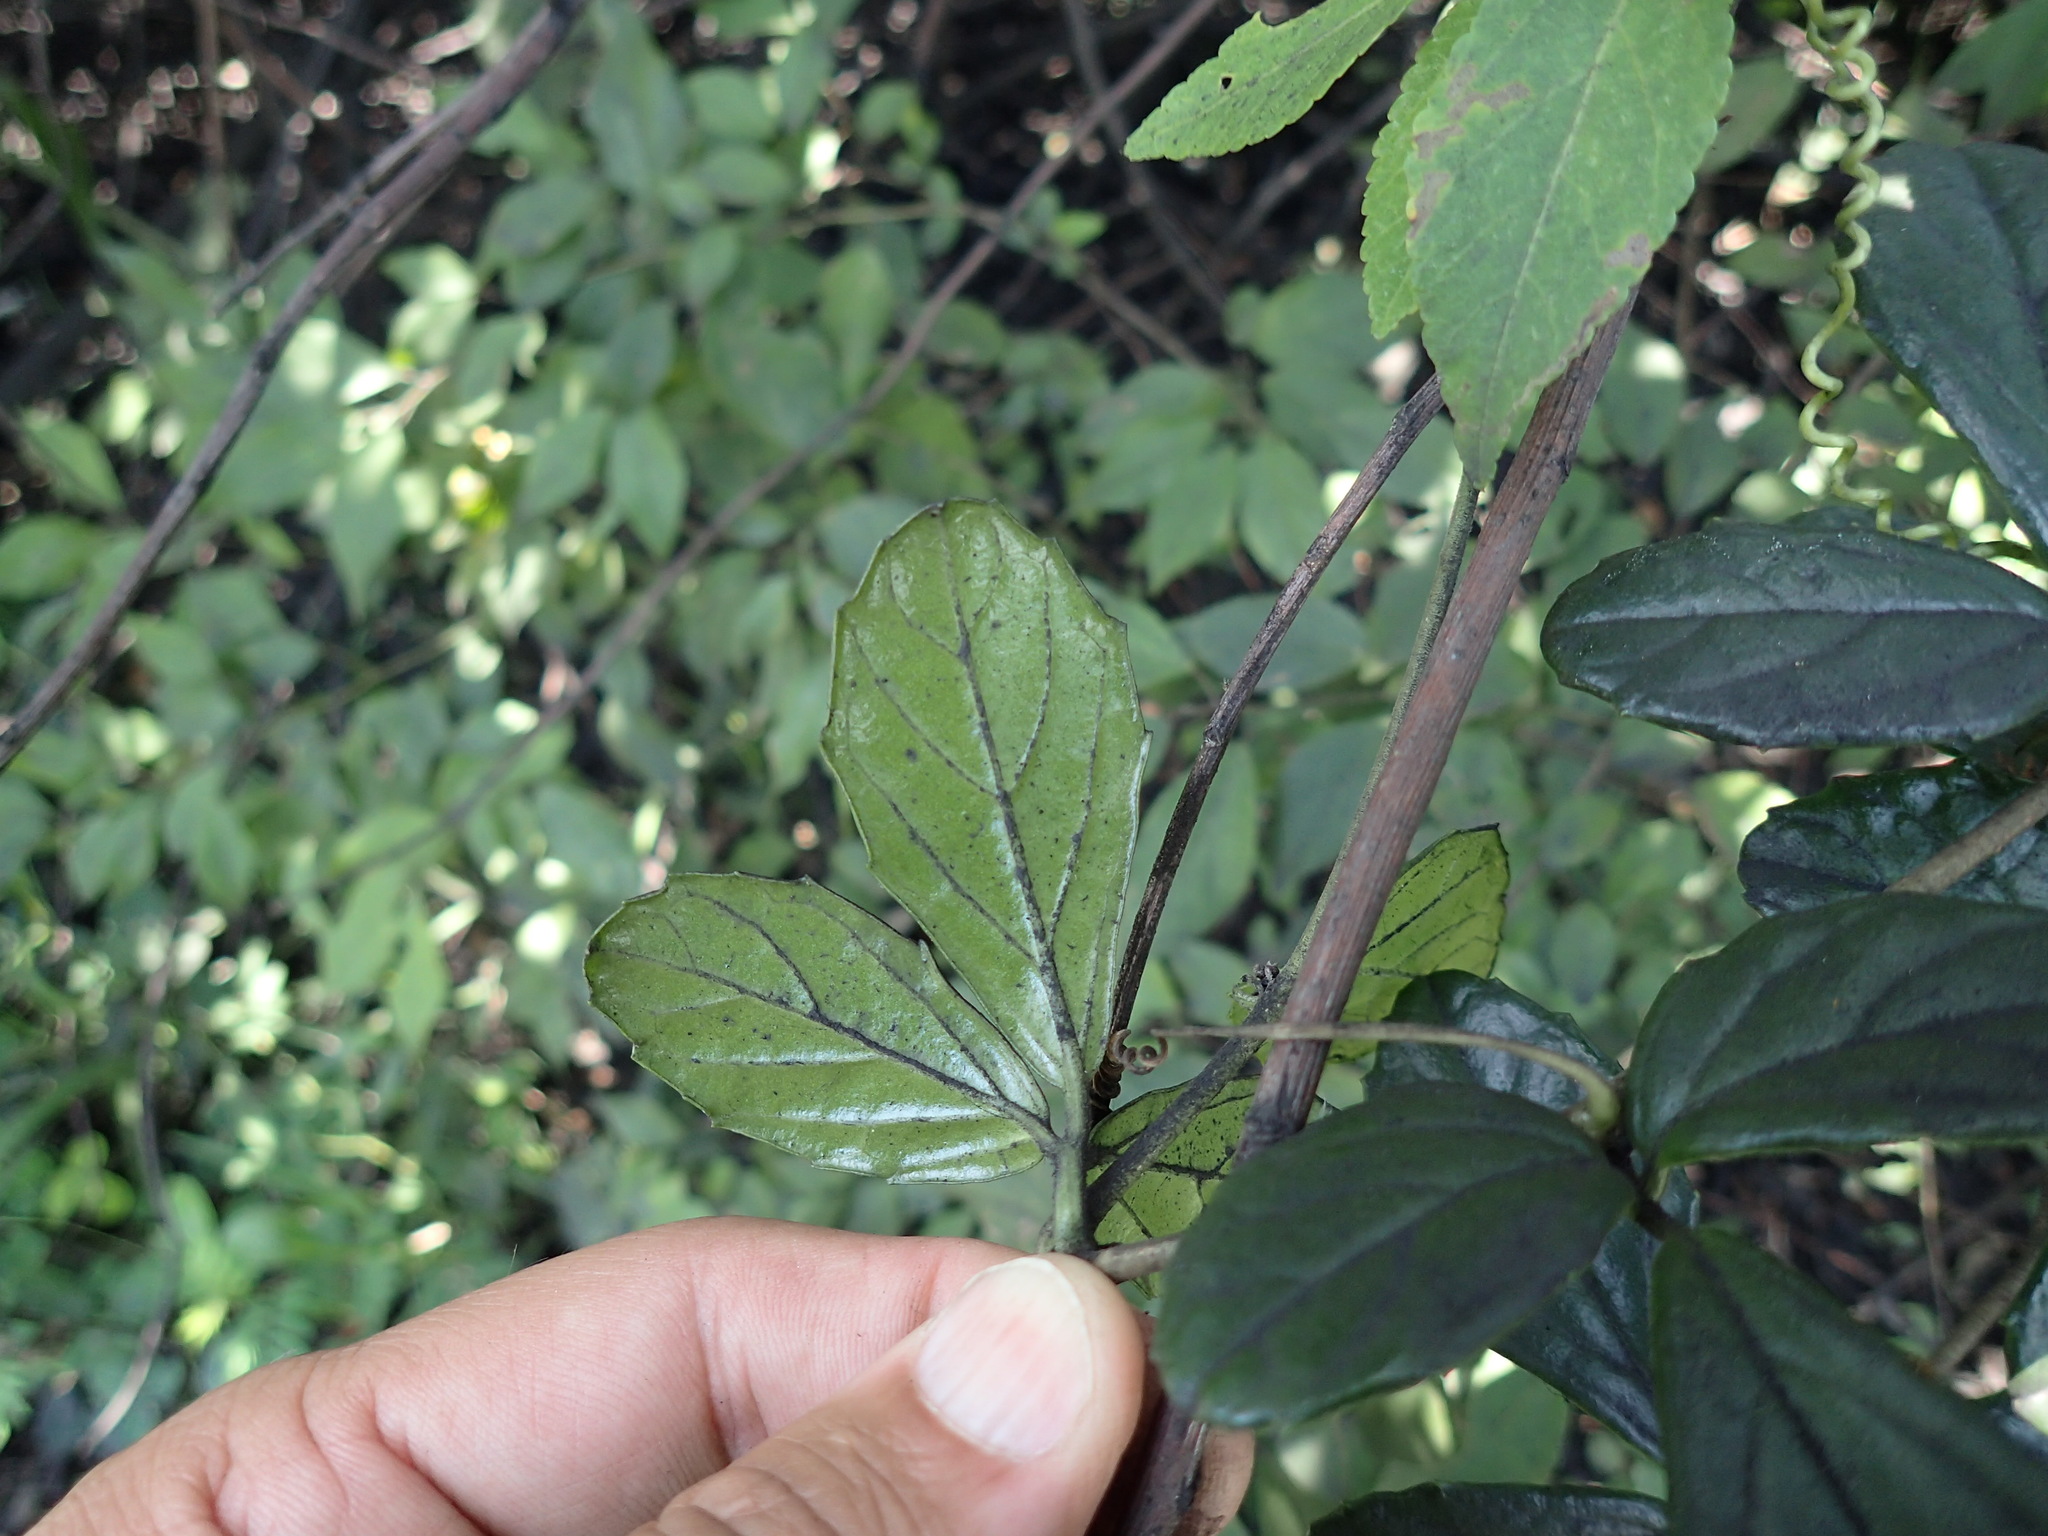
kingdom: Plantae
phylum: Tracheophyta
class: Magnoliopsida
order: Vitales
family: Vitaceae
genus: Cyphostemma
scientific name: Cyphostemma flaviflorum
